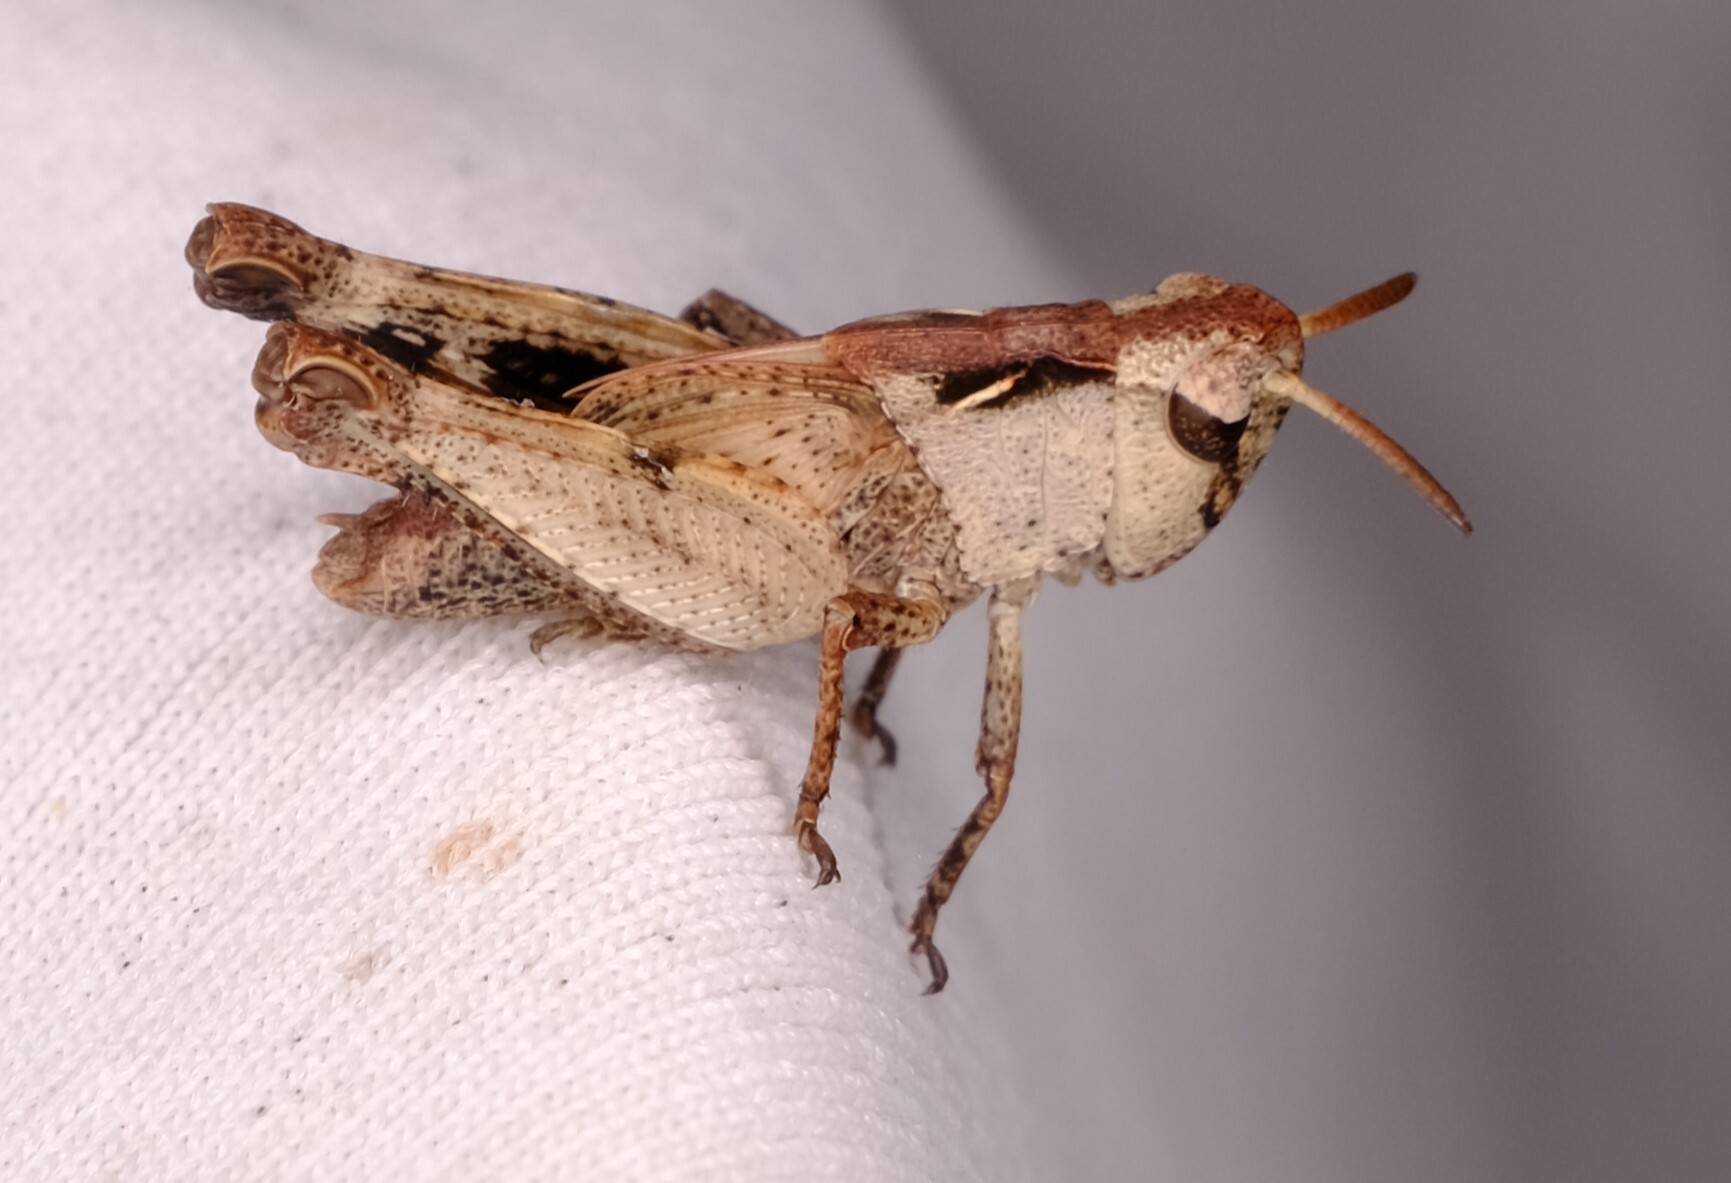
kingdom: Animalia
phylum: Arthropoda
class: Insecta
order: Orthoptera
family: Acrididae
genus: Cryptobothrus
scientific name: Cryptobothrus chrysophorus
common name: Golden bandwing
